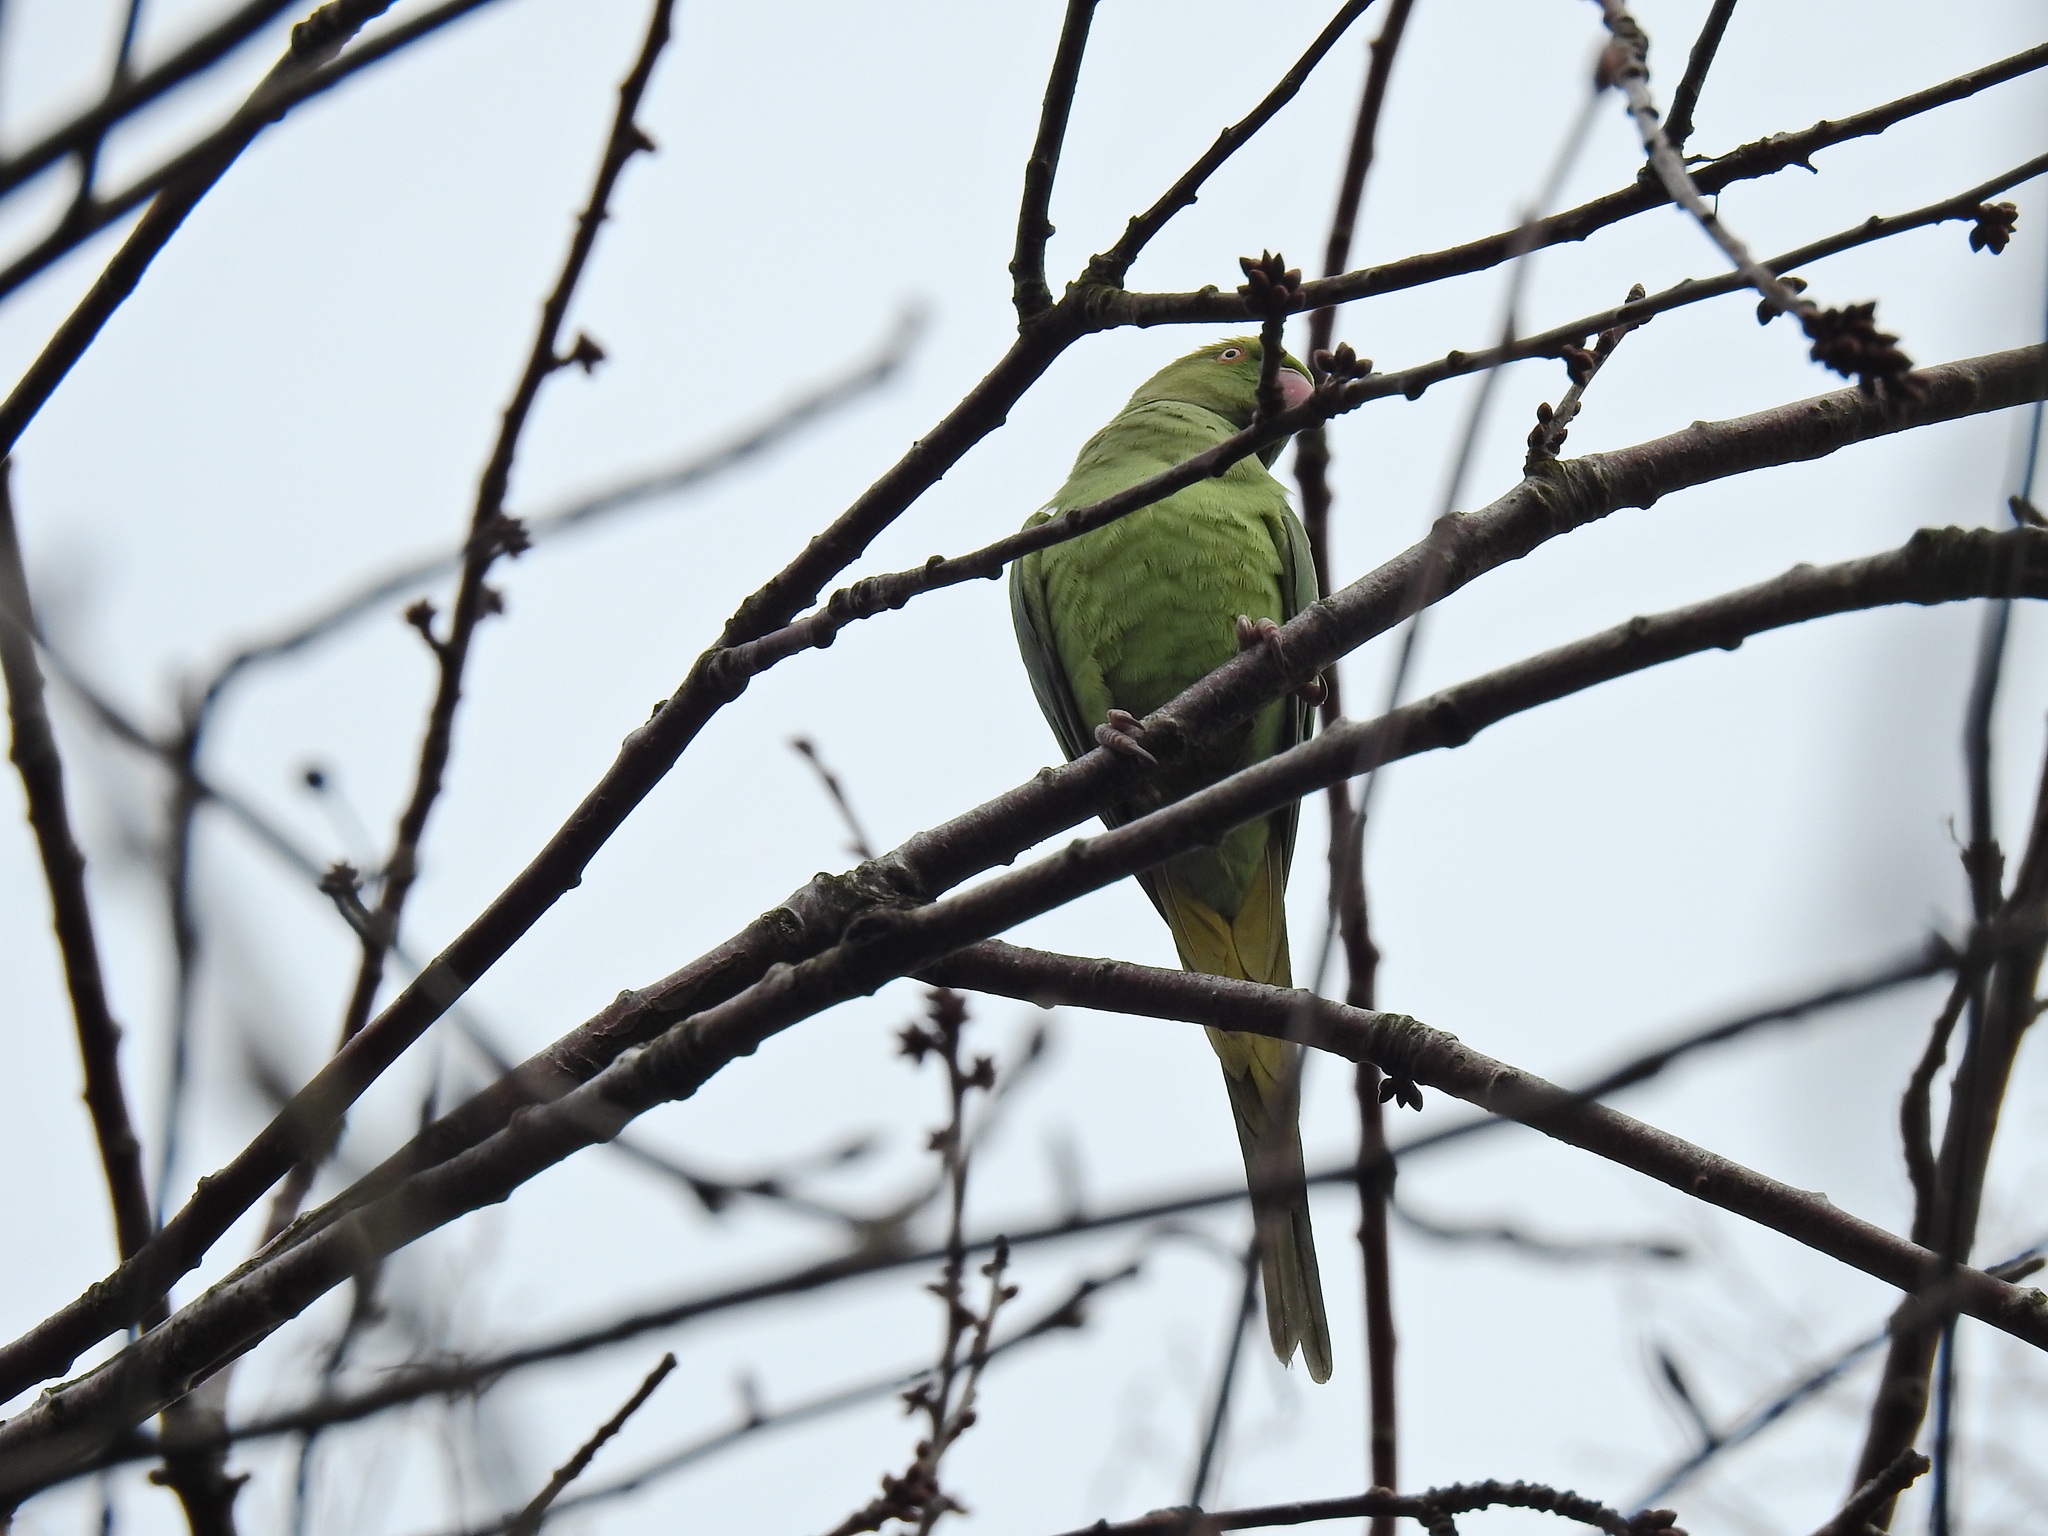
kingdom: Animalia
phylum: Chordata
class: Aves
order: Psittaciformes
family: Psittacidae
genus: Psittacula
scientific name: Psittacula krameri
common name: Rose-ringed parakeet
